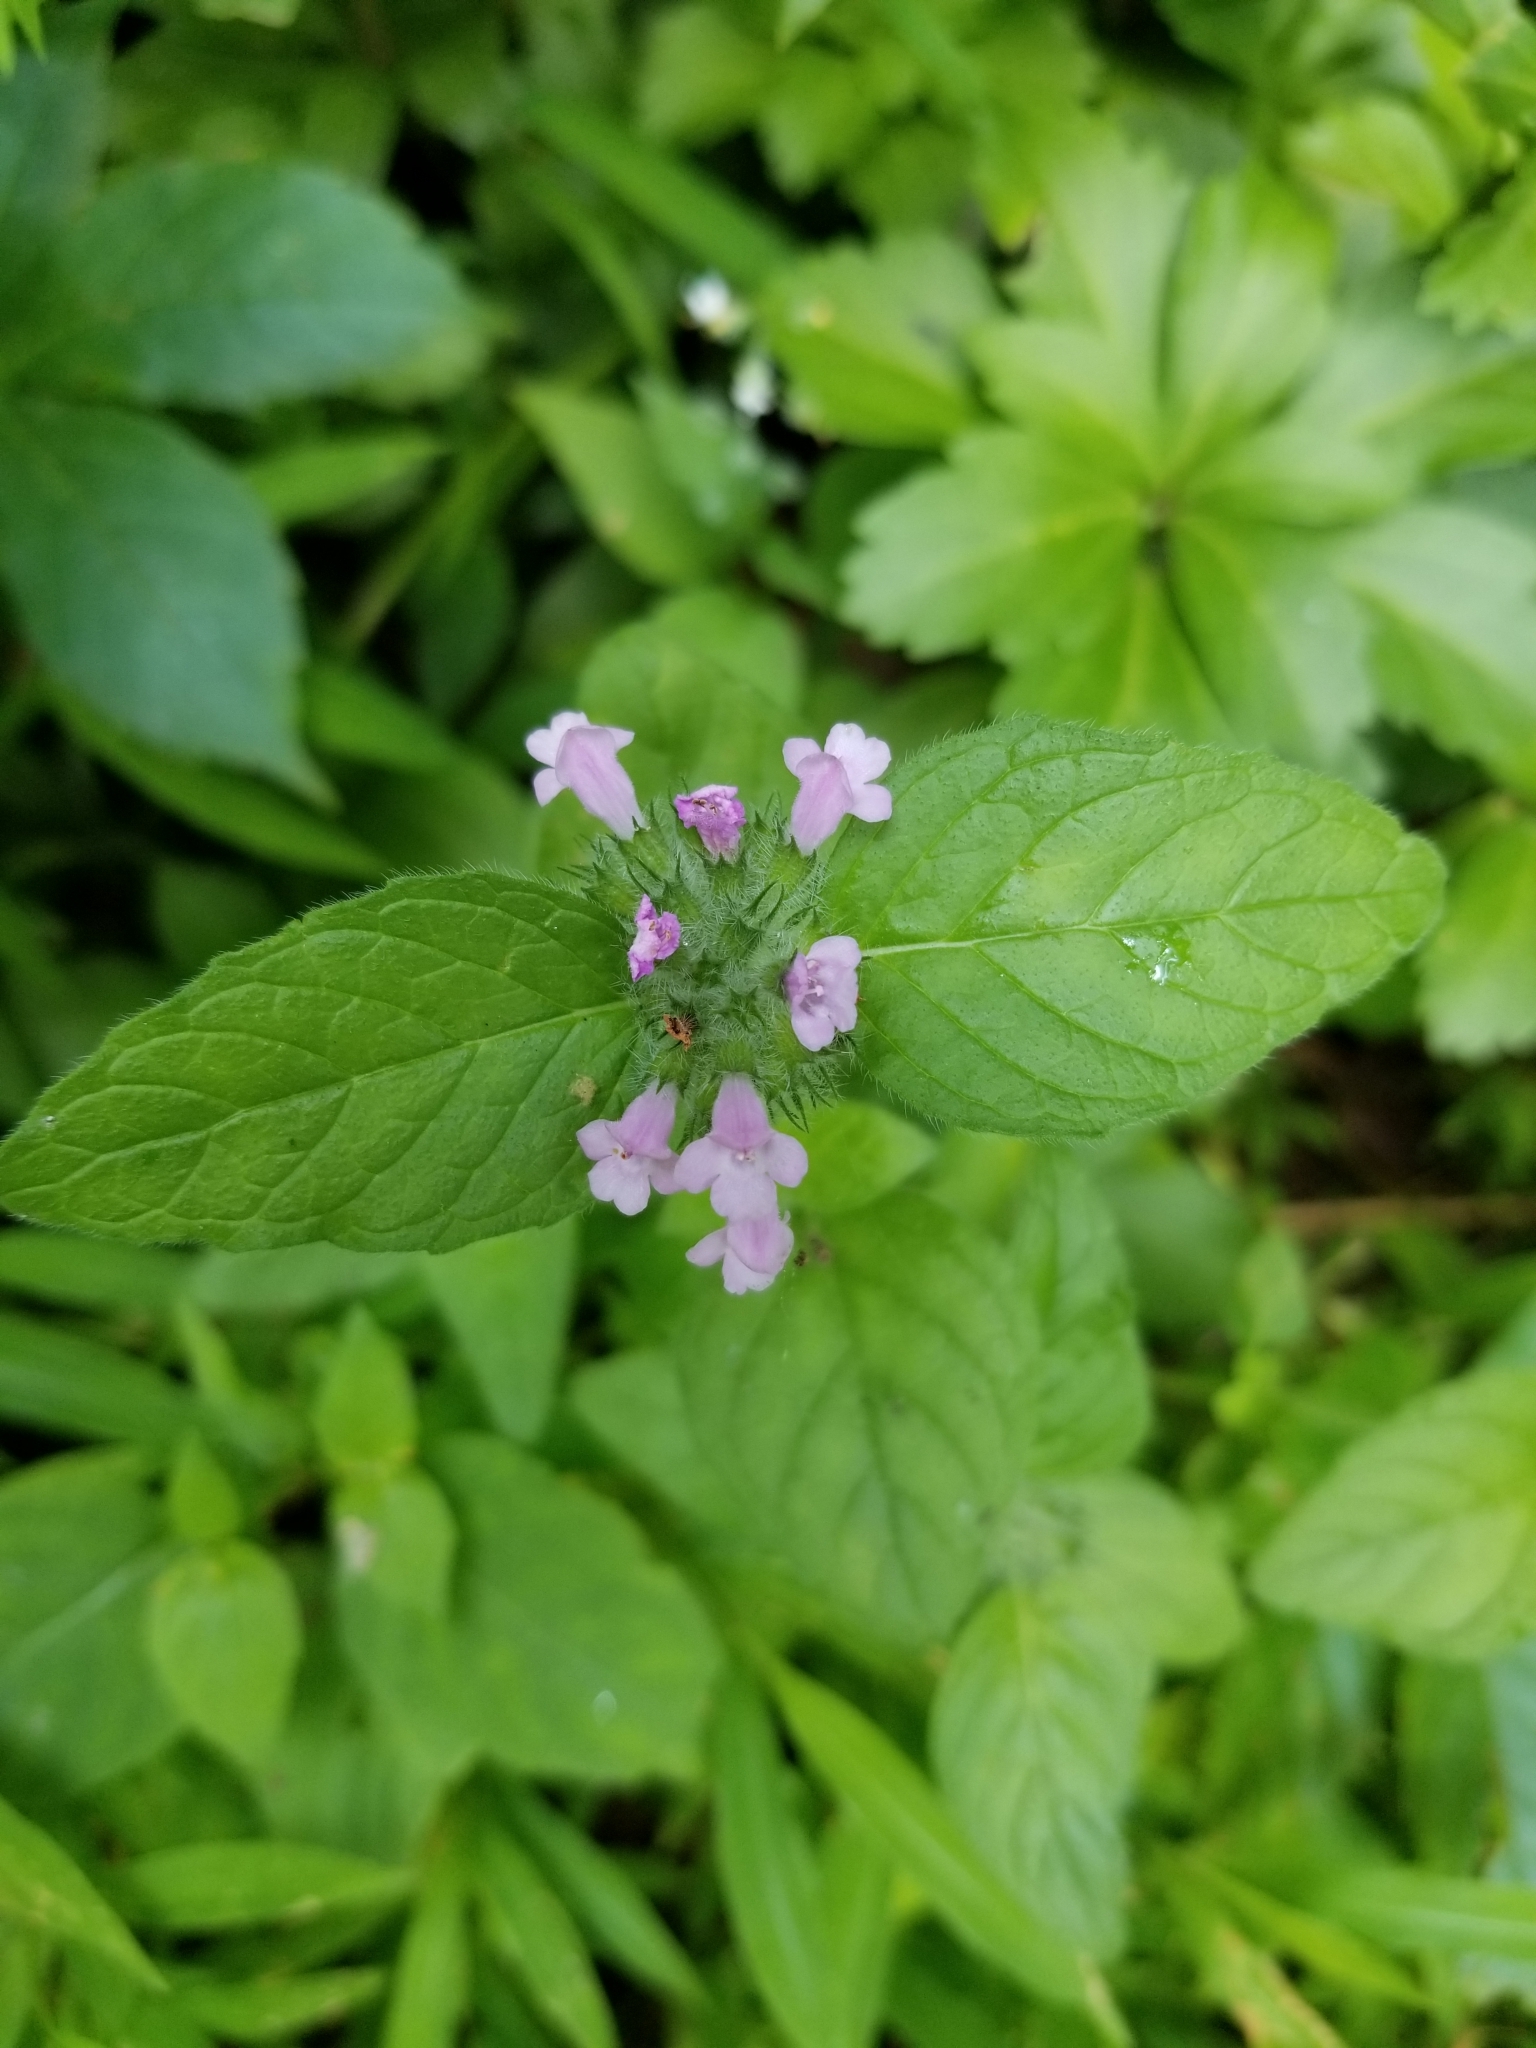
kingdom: Plantae
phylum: Tracheophyta
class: Magnoliopsida
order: Lamiales
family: Lamiaceae
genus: Clinopodium
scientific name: Clinopodium vulgare
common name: Wild basil
